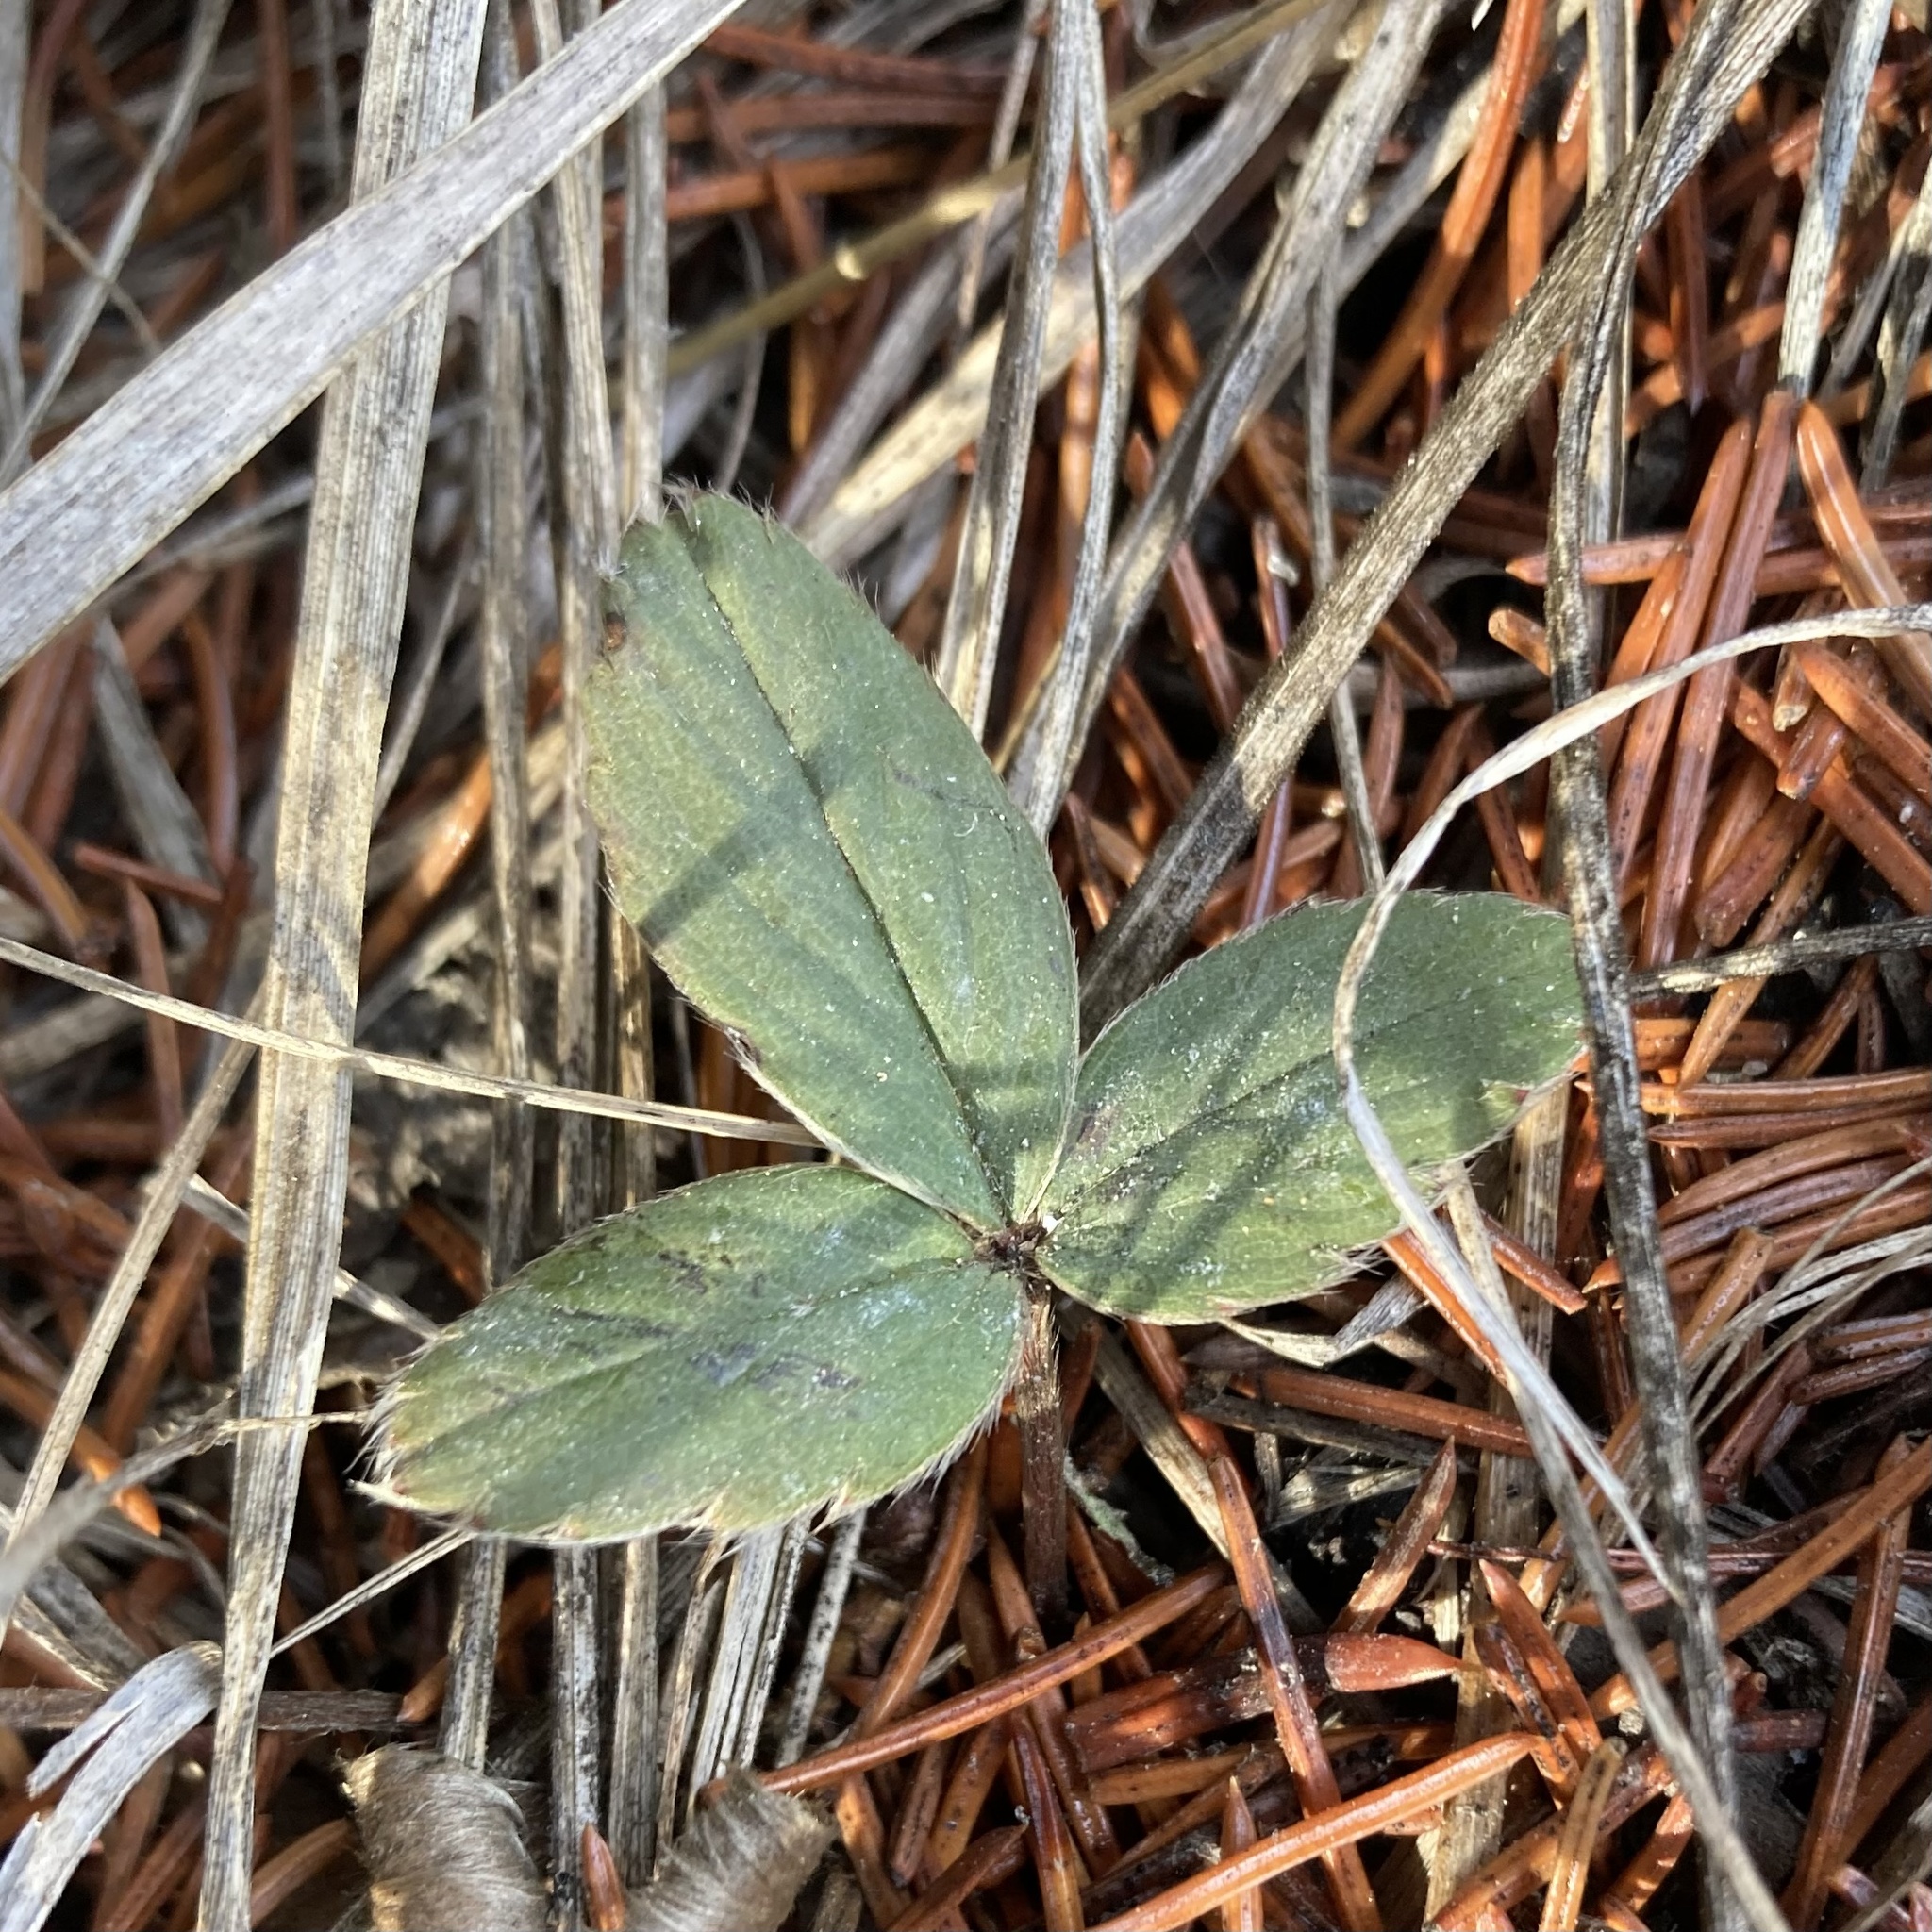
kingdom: Plantae
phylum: Tracheophyta
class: Magnoliopsida
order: Rosales
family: Rosaceae
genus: Fragaria
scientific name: Fragaria virginiana
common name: Thickleaved wild strawberry
